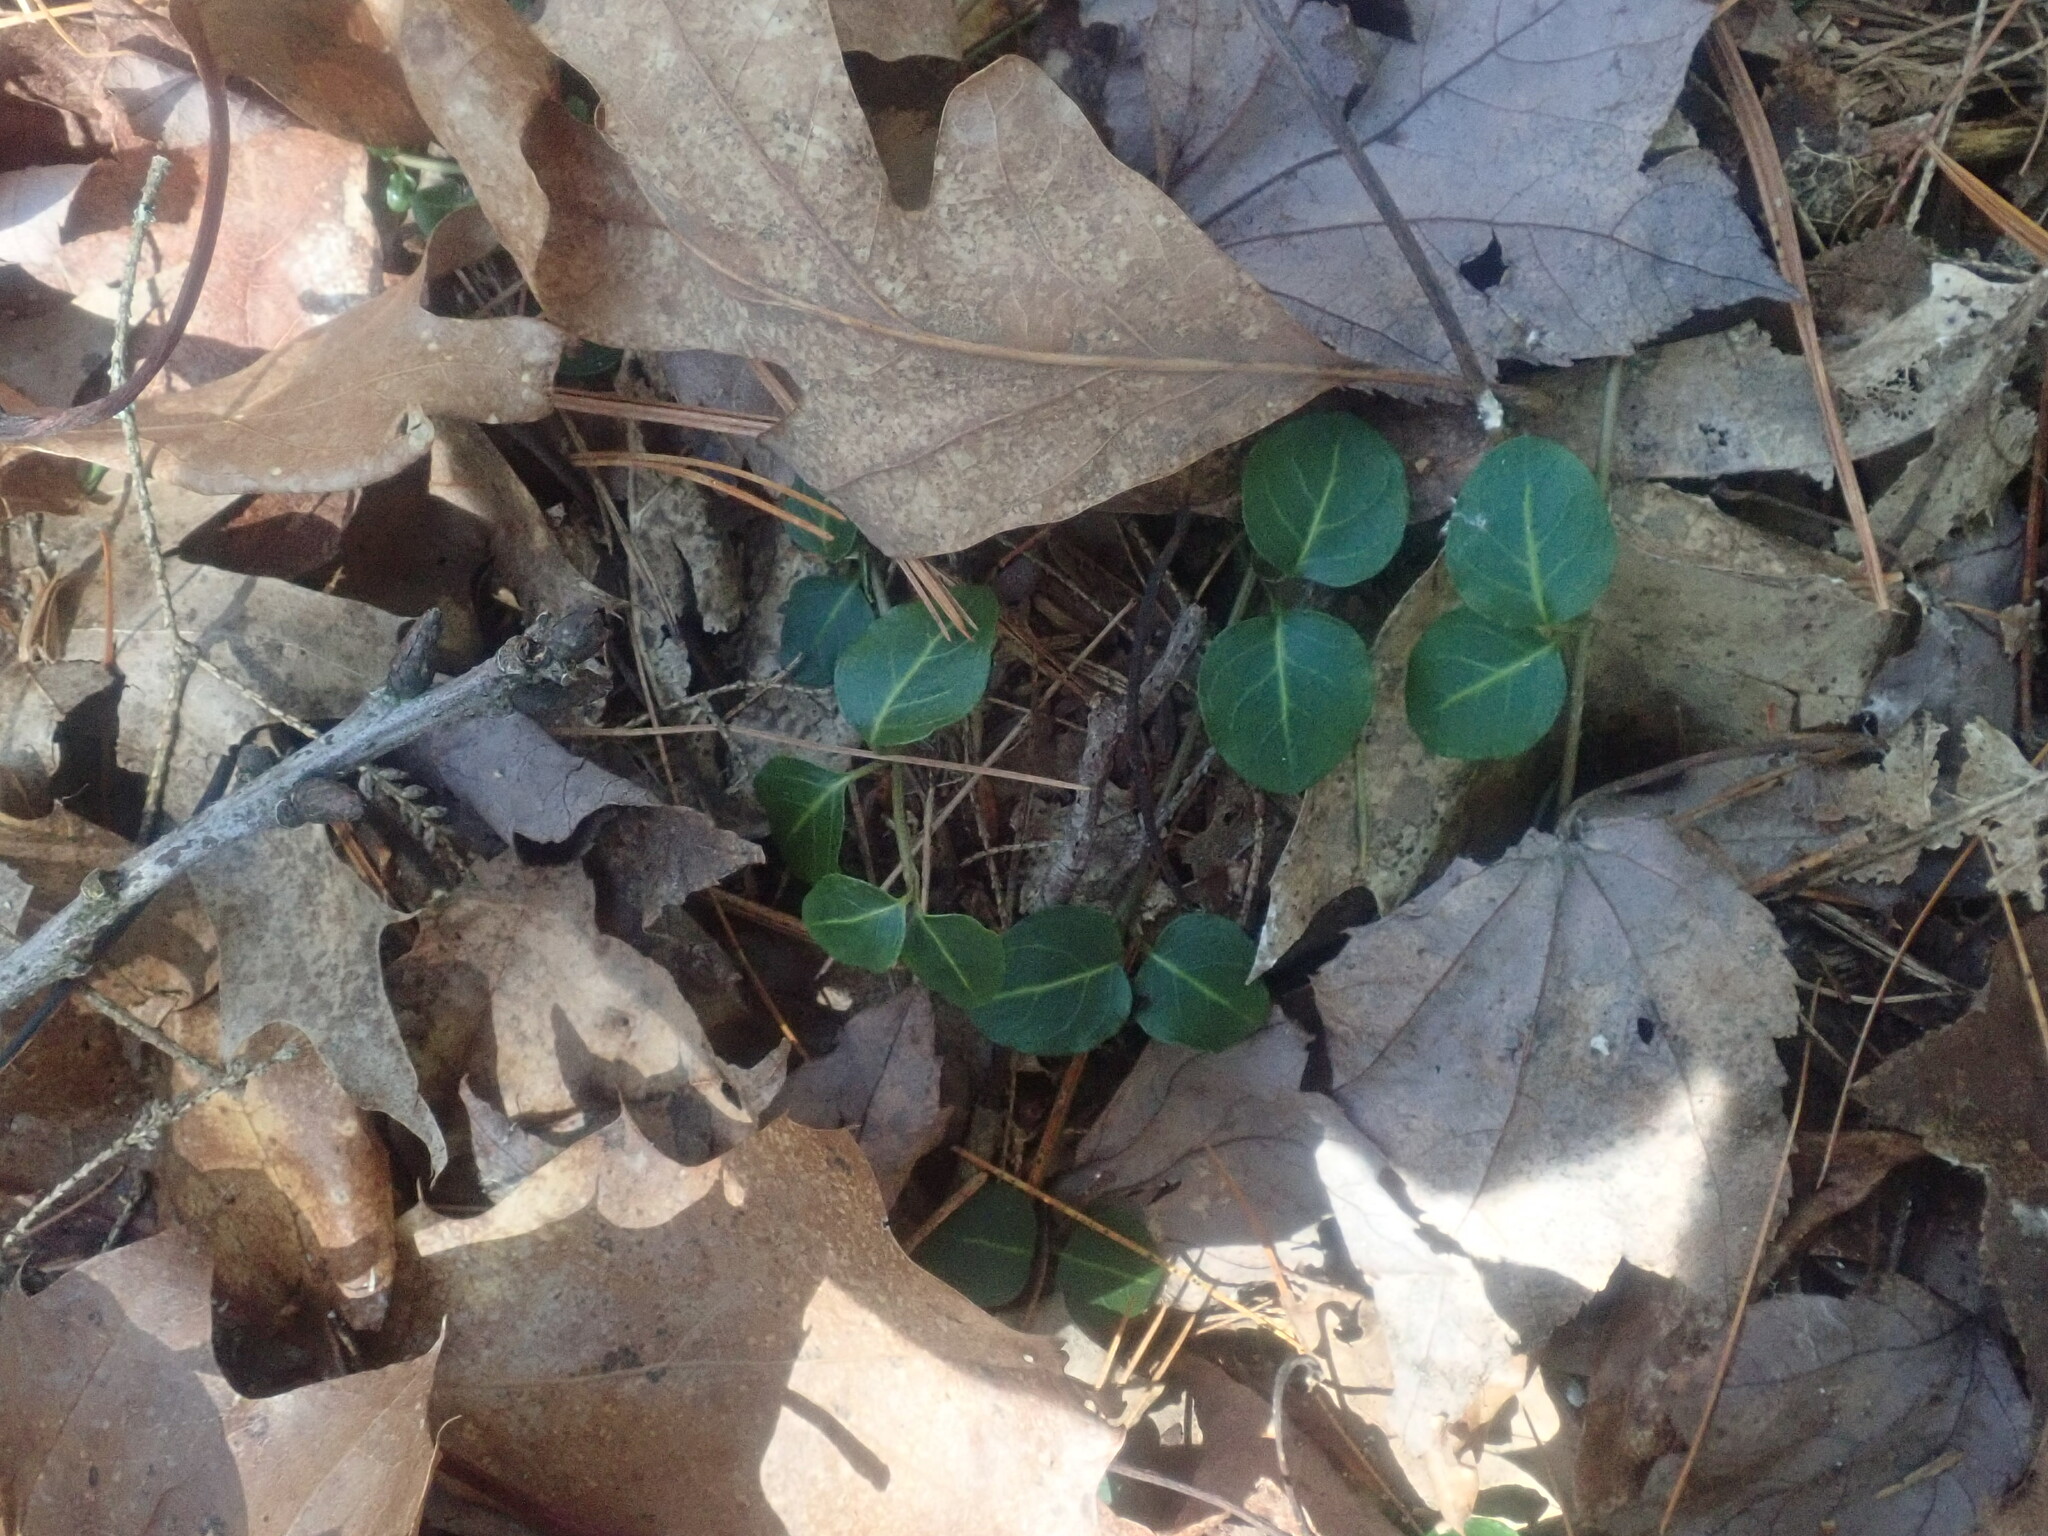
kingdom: Plantae
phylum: Tracheophyta
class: Magnoliopsida
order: Gentianales
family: Rubiaceae
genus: Mitchella
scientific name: Mitchella repens
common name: Partridge-berry
